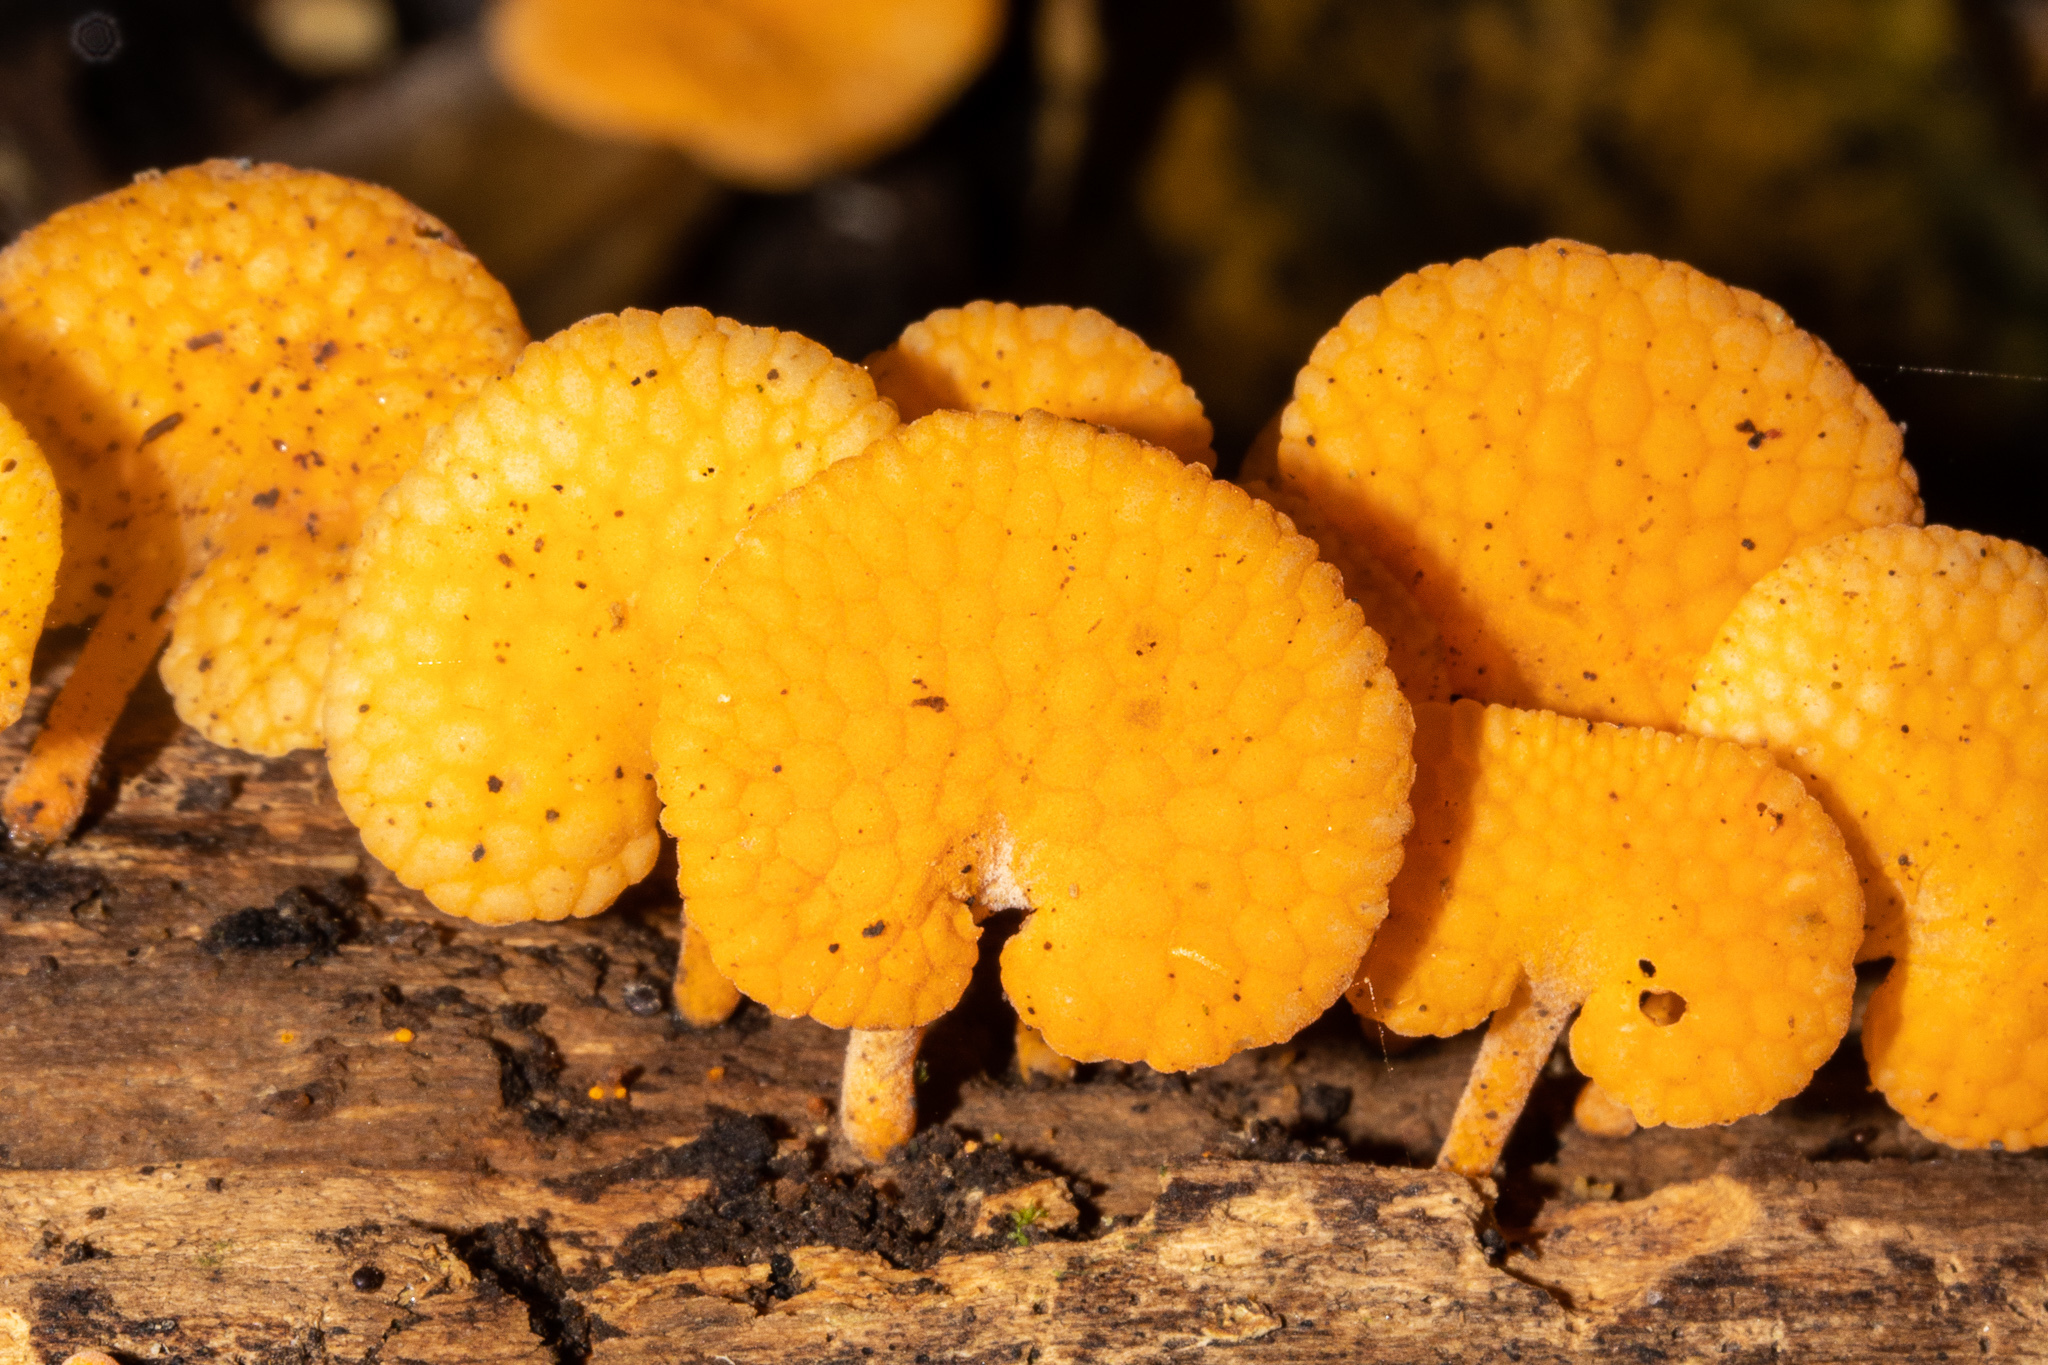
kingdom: Fungi
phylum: Basidiomycota
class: Agaricomycetes
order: Agaricales
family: Mycenaceae
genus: Favolaschia
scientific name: Favolaschia claudopus
